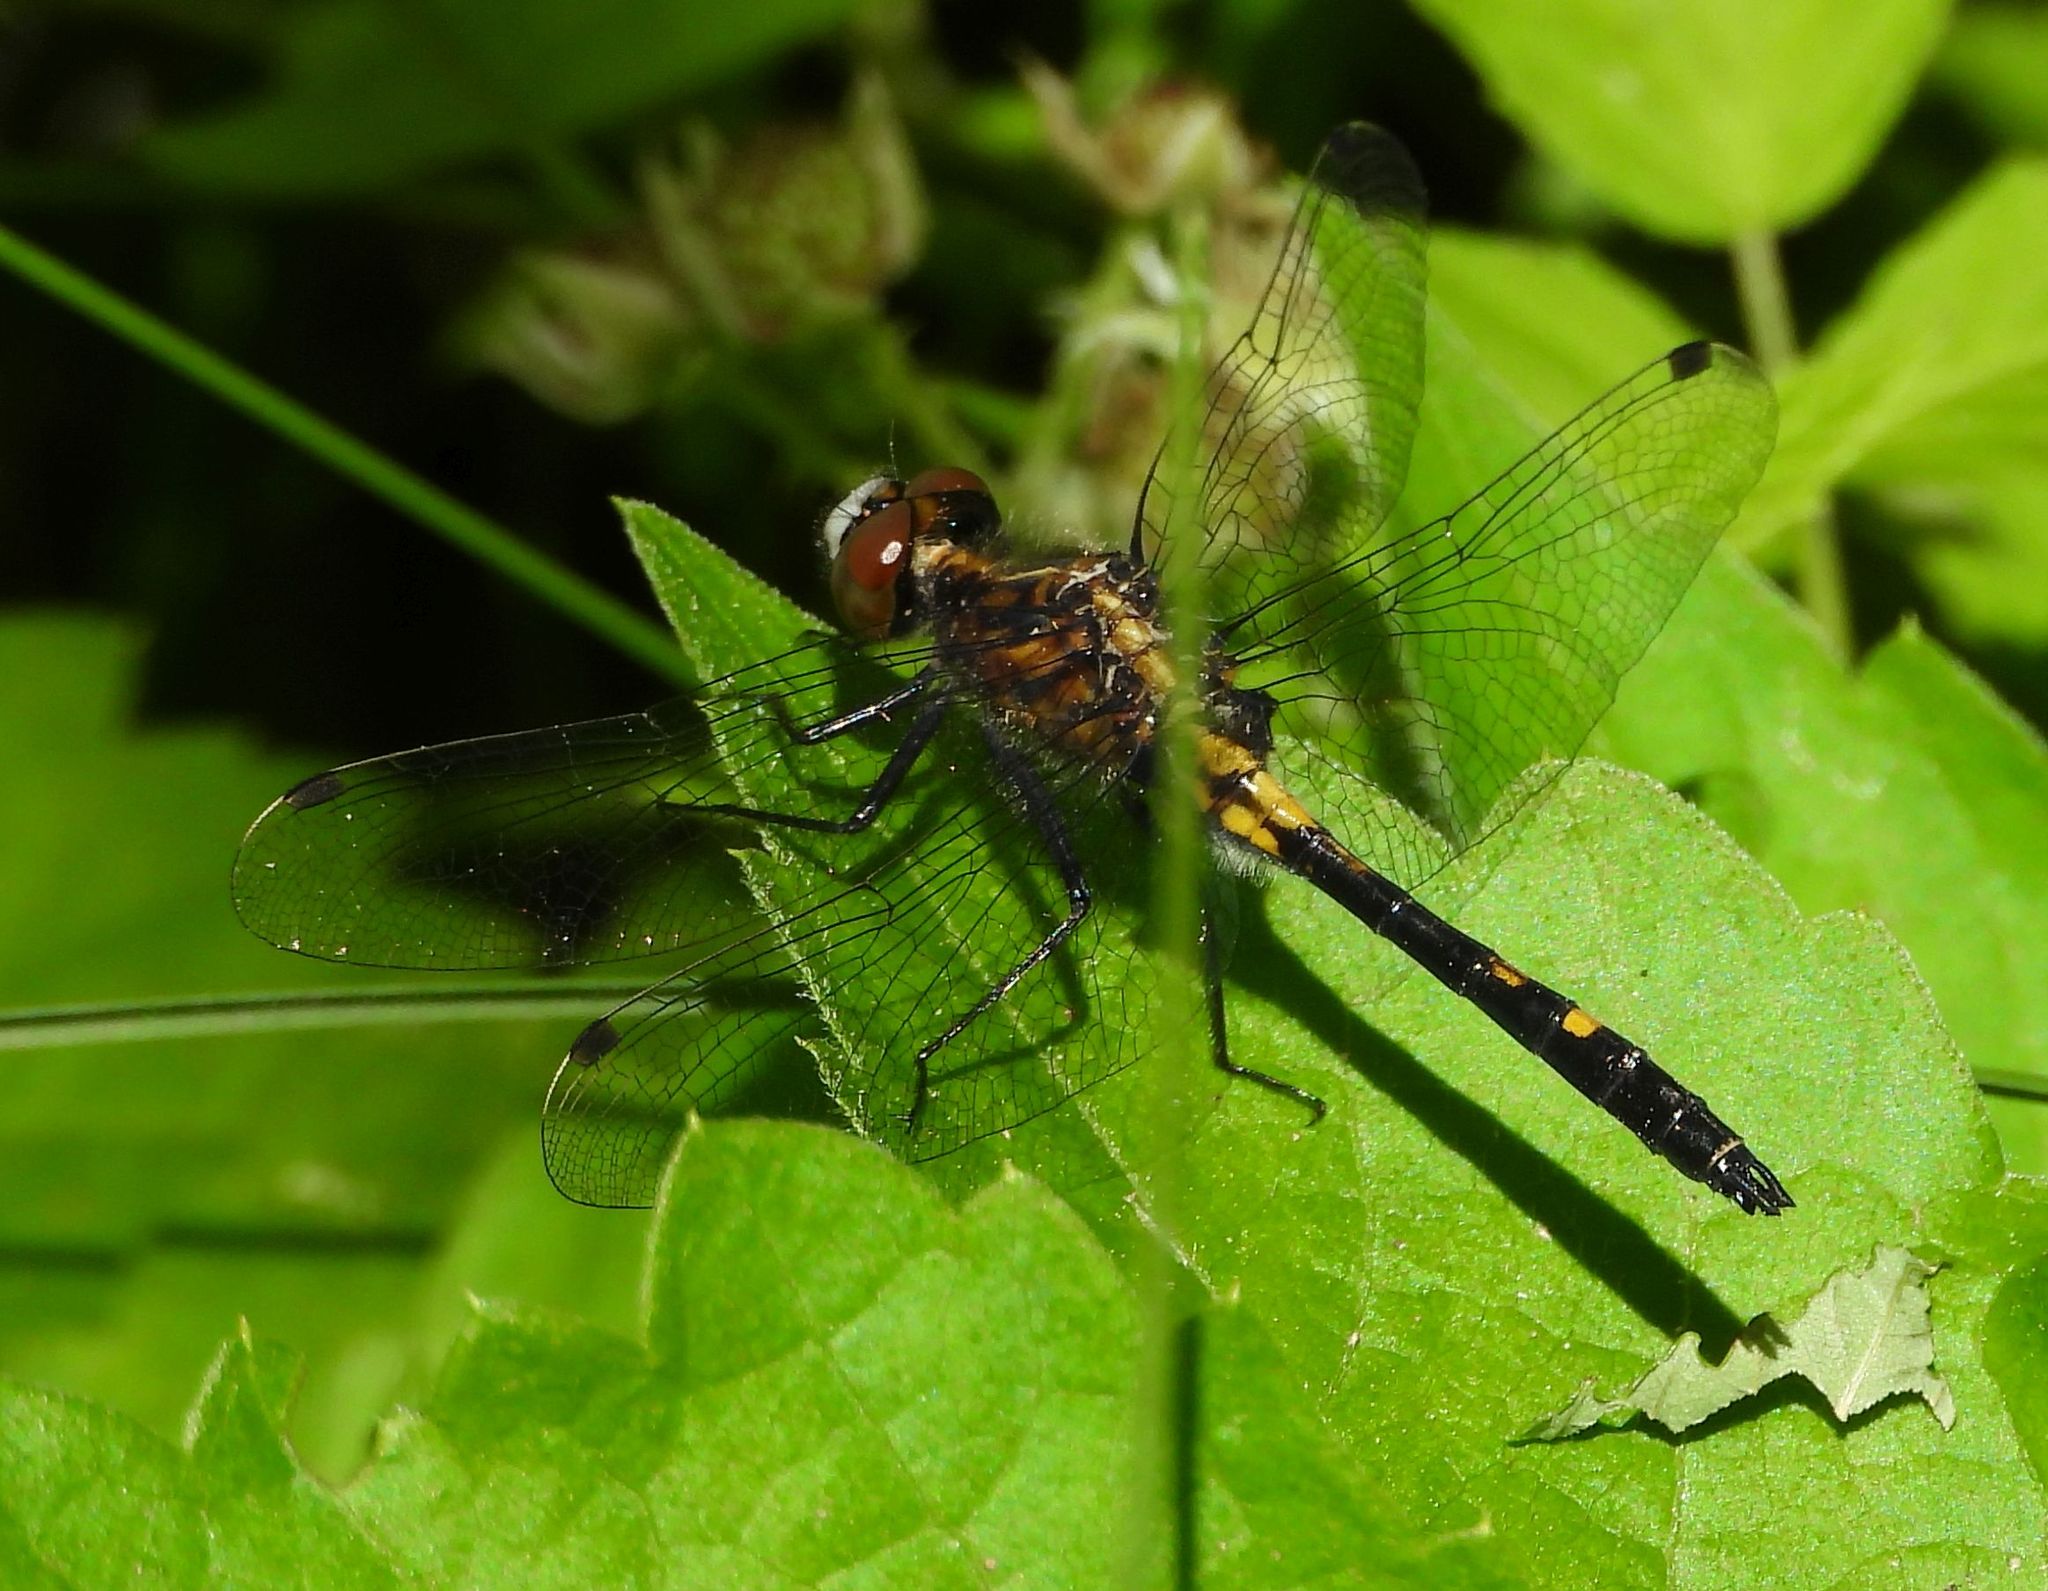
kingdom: Animalia
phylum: Arthropoda
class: Insecta
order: Odonata
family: Libellulidae
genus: Leucorrhinia
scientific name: Leucorrhinia intacta
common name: Dot-tailed whiteface
